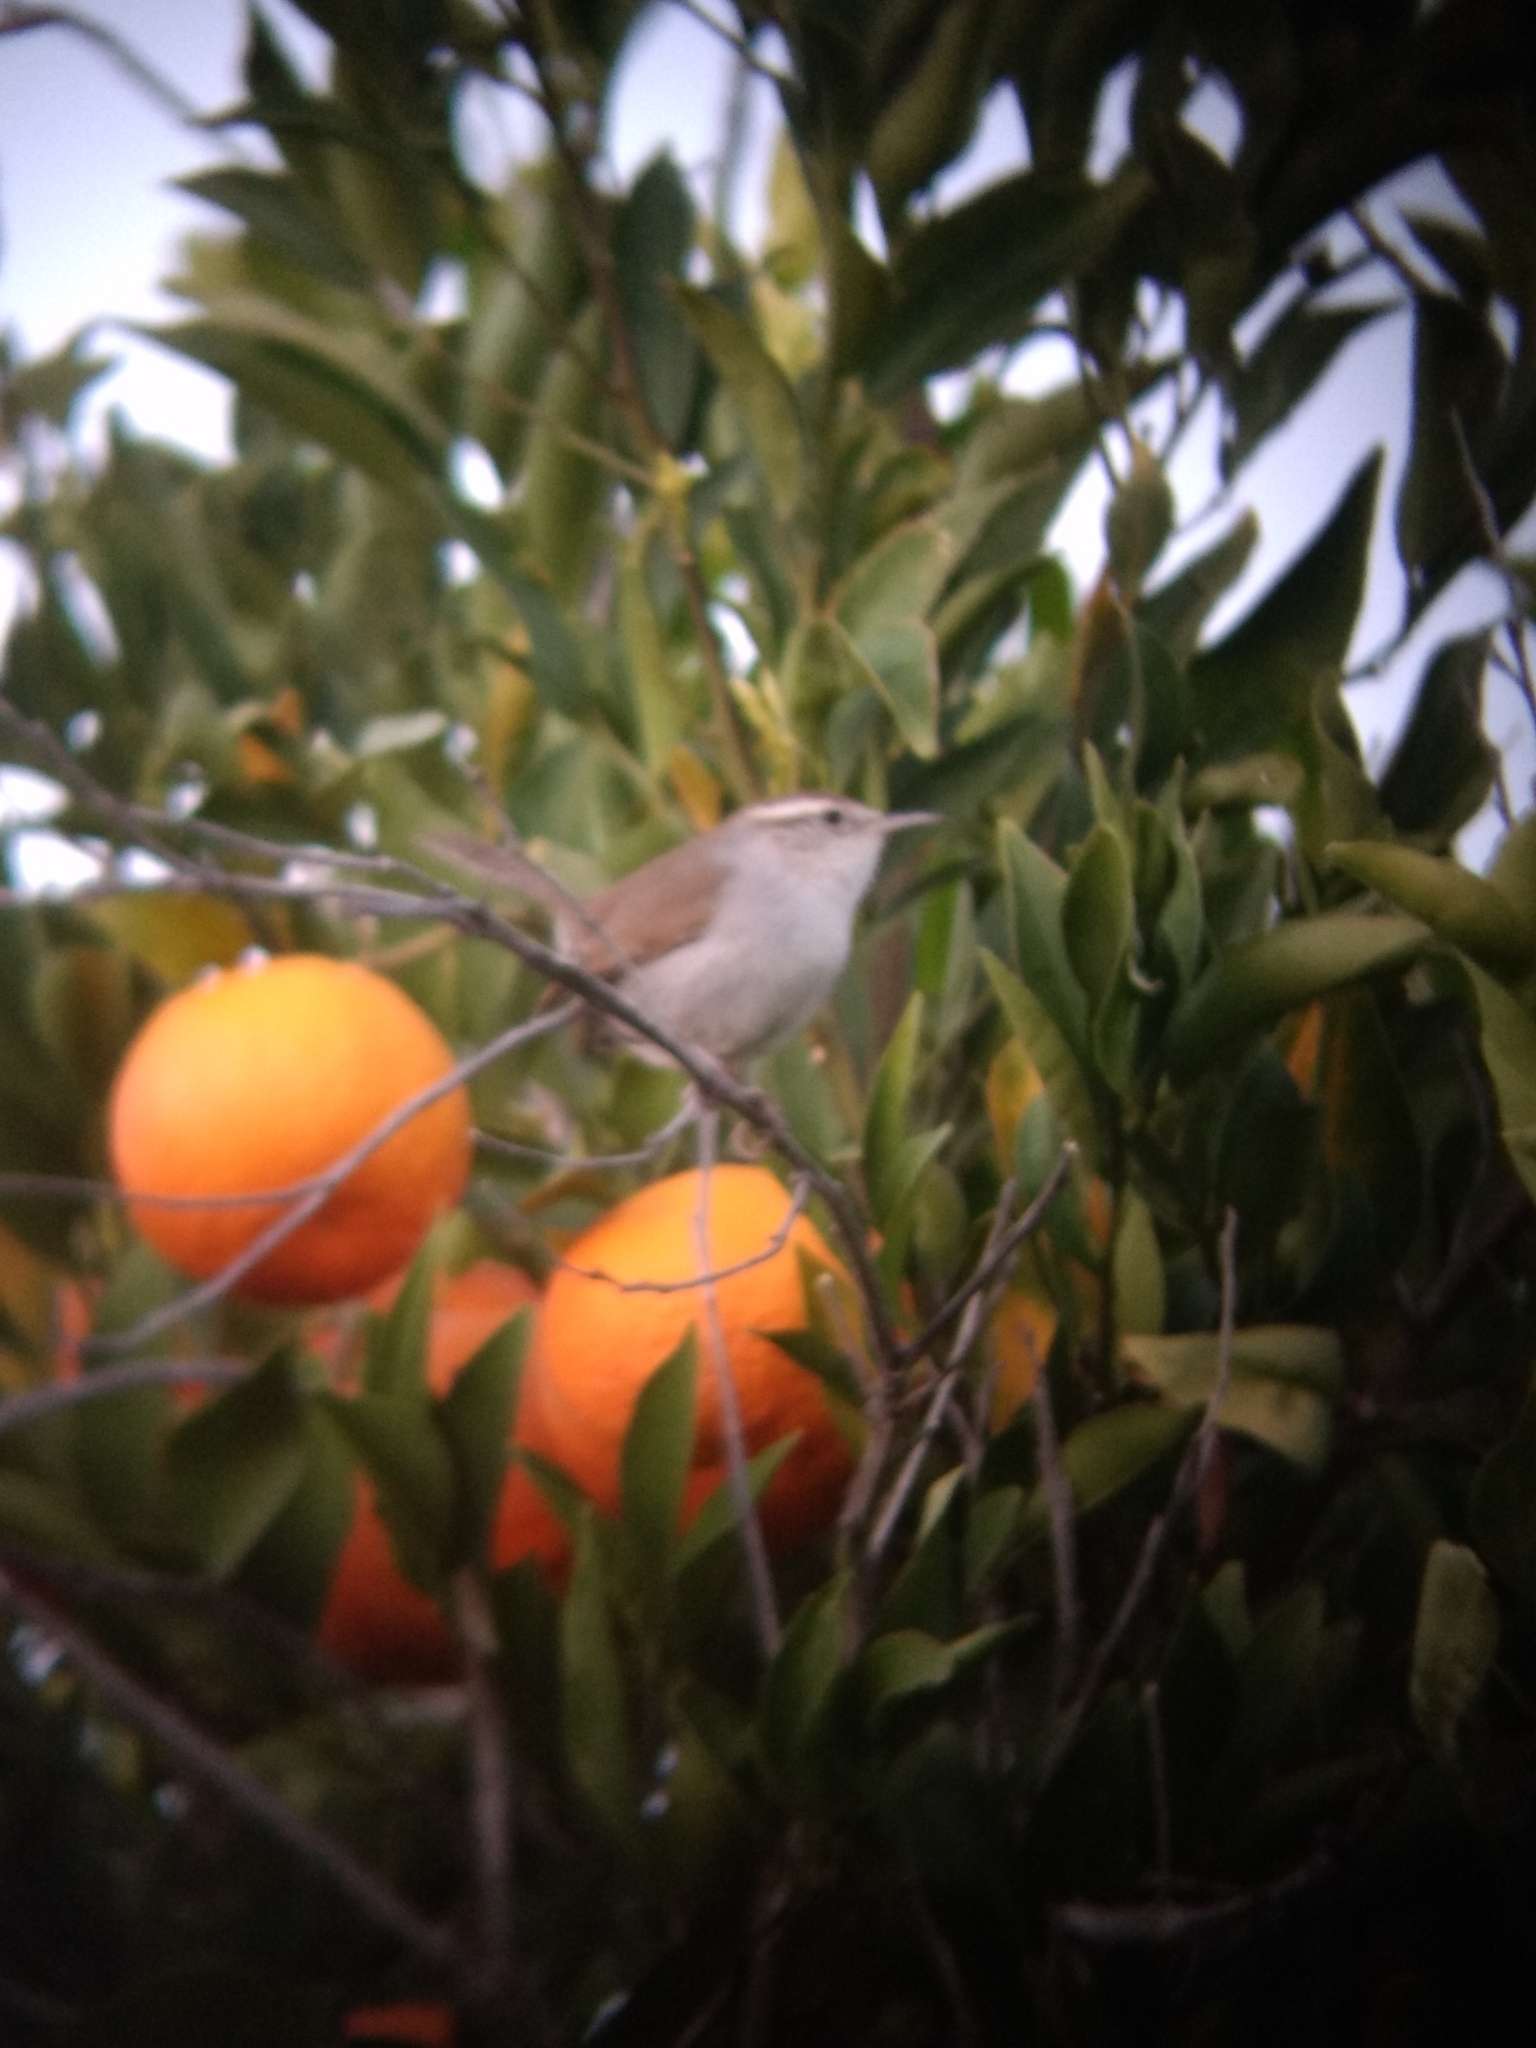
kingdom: Animalia
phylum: Chordata
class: Aves
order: Passeriformes
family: Troglodytidae
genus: Thryomanes
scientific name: Thryomanes bewickii
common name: Bewick's wren
